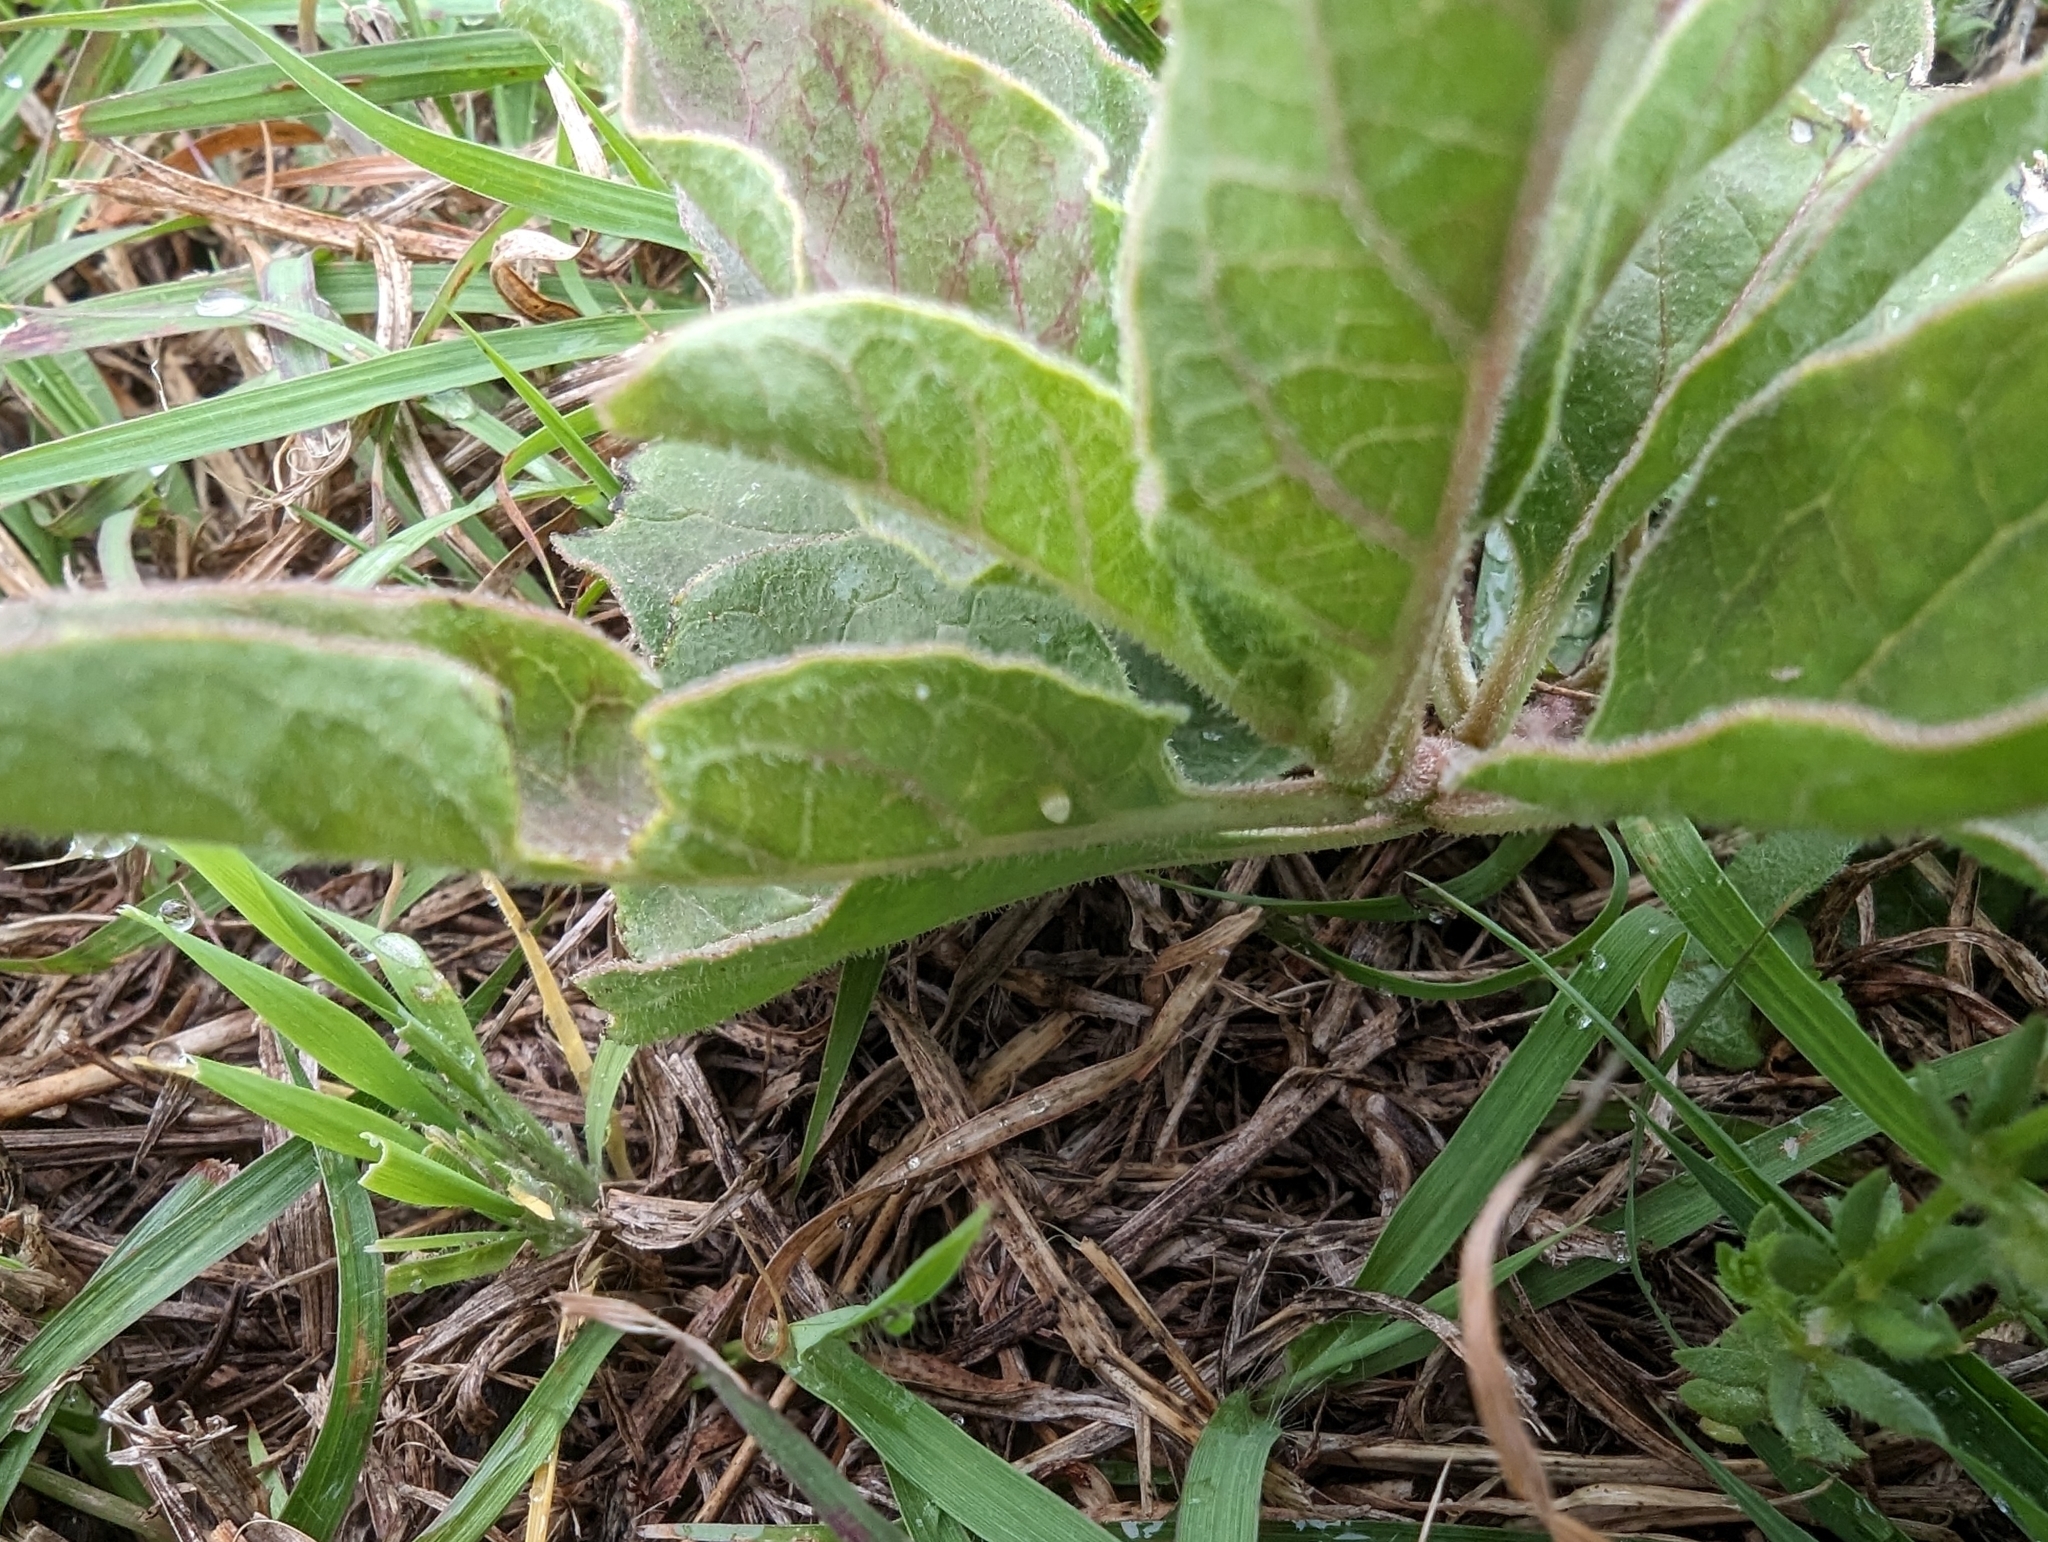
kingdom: Animalia
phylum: Arthropoda
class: Insecta
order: Lepidoptera
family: Nymphalidae
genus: Danaus
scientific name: Danaus plexippus
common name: Monarch
